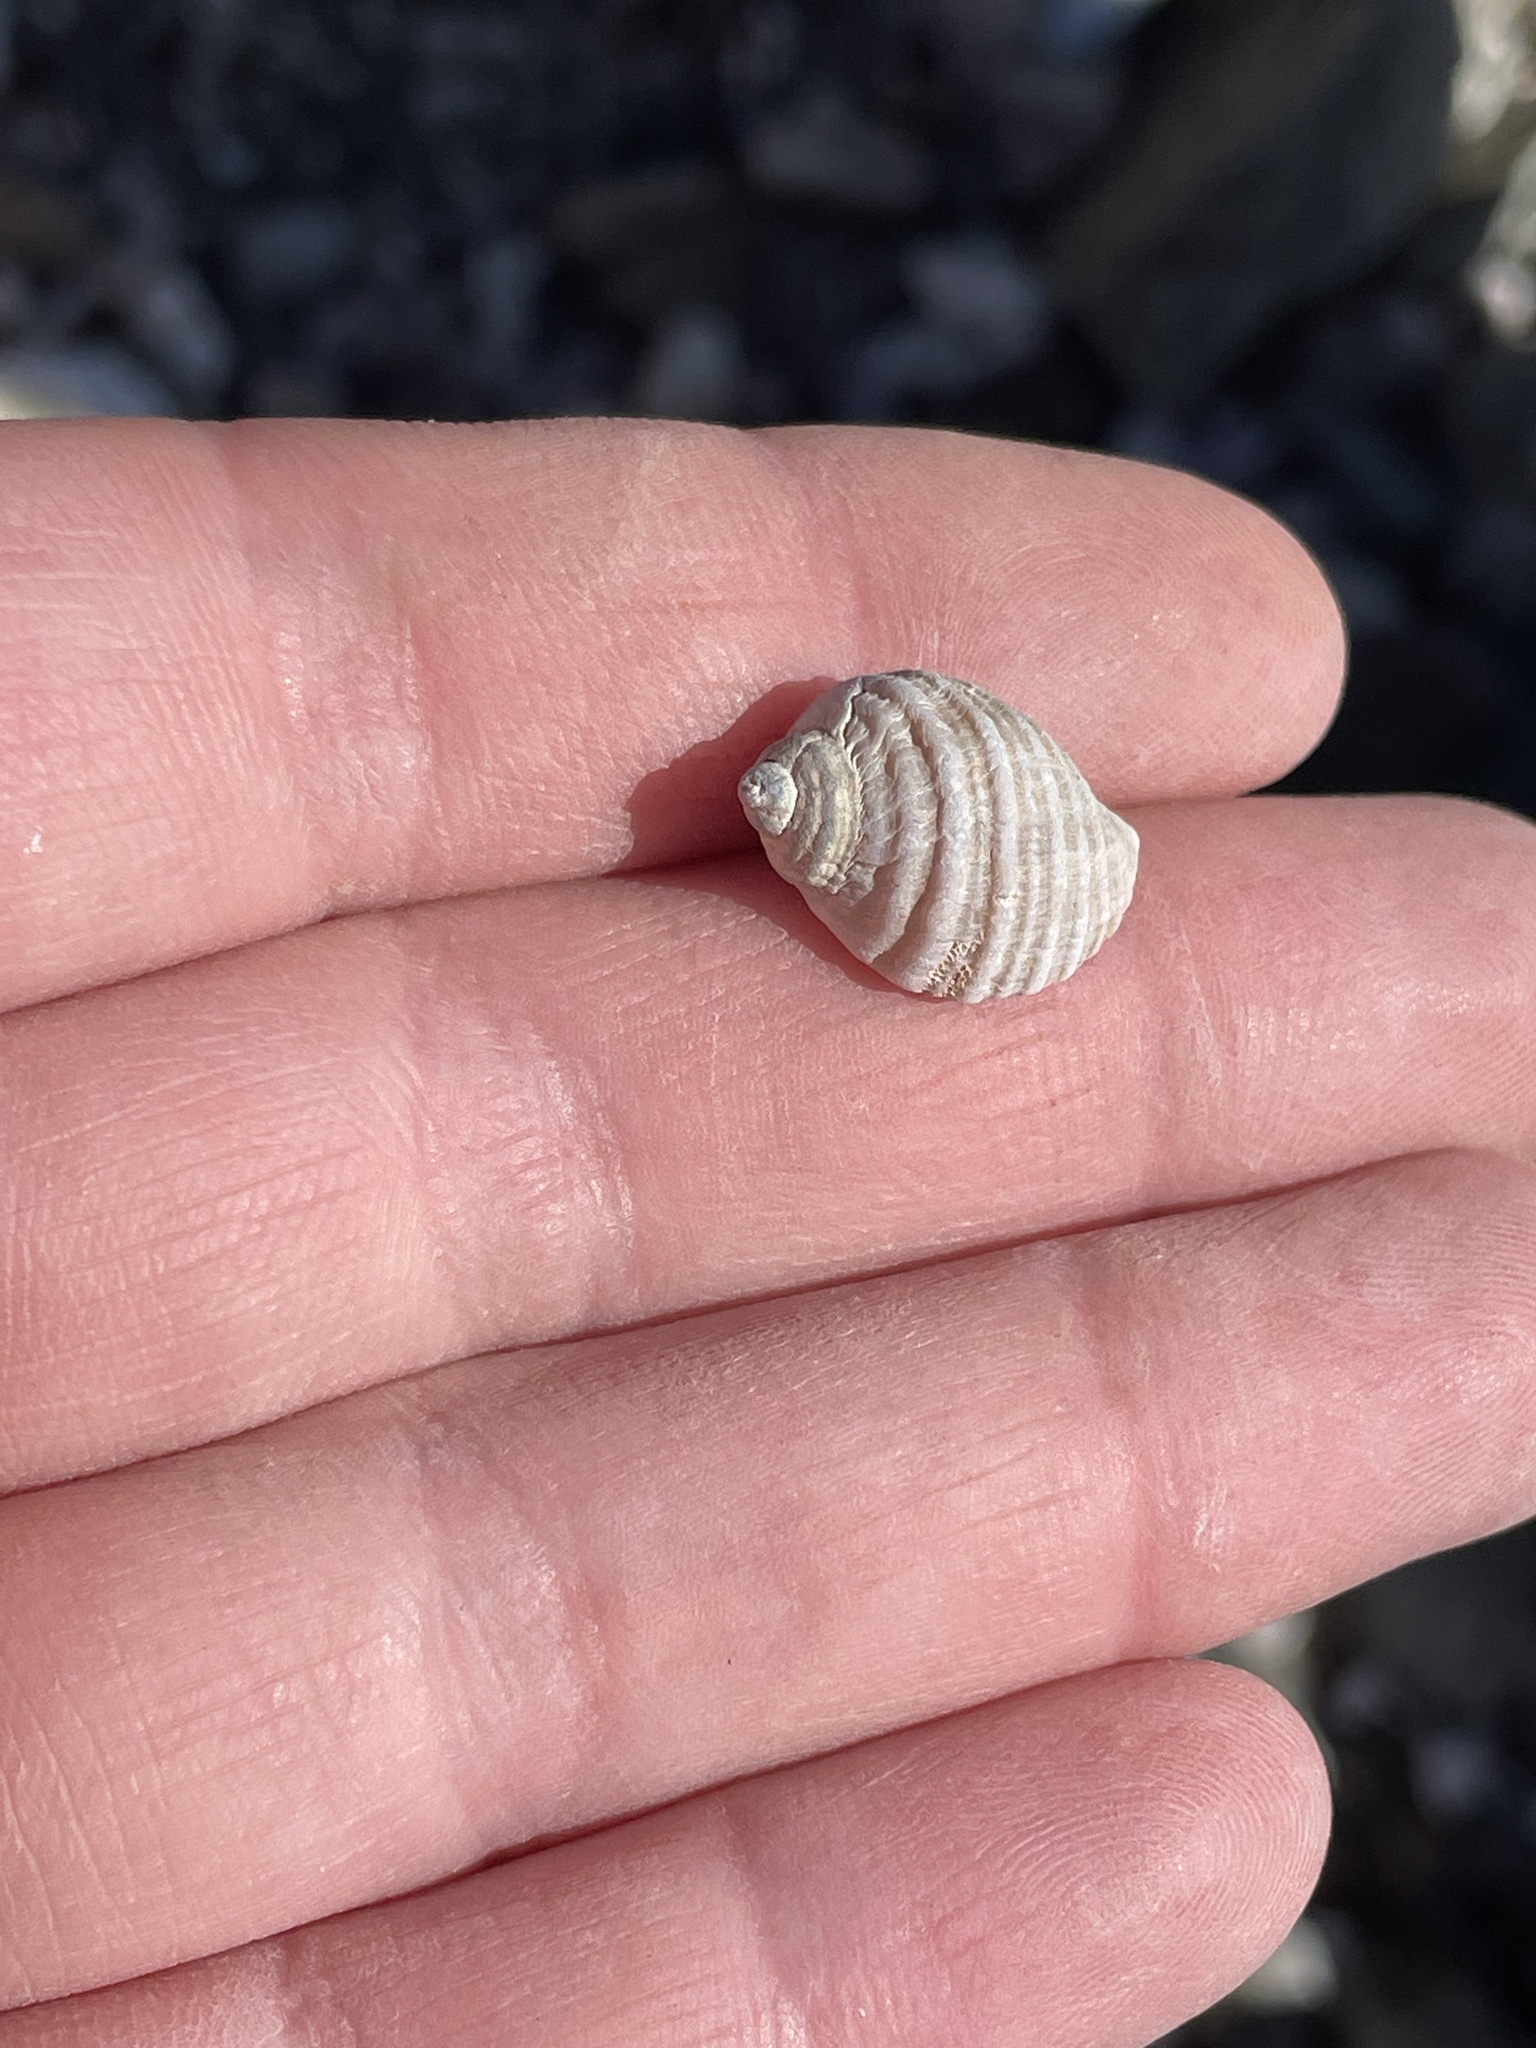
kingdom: Animalia
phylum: Mollusca
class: Gastropoda
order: Neogastropoda
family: Muricidae
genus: Nucella
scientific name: Nucella lapillus
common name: Dog whelk
